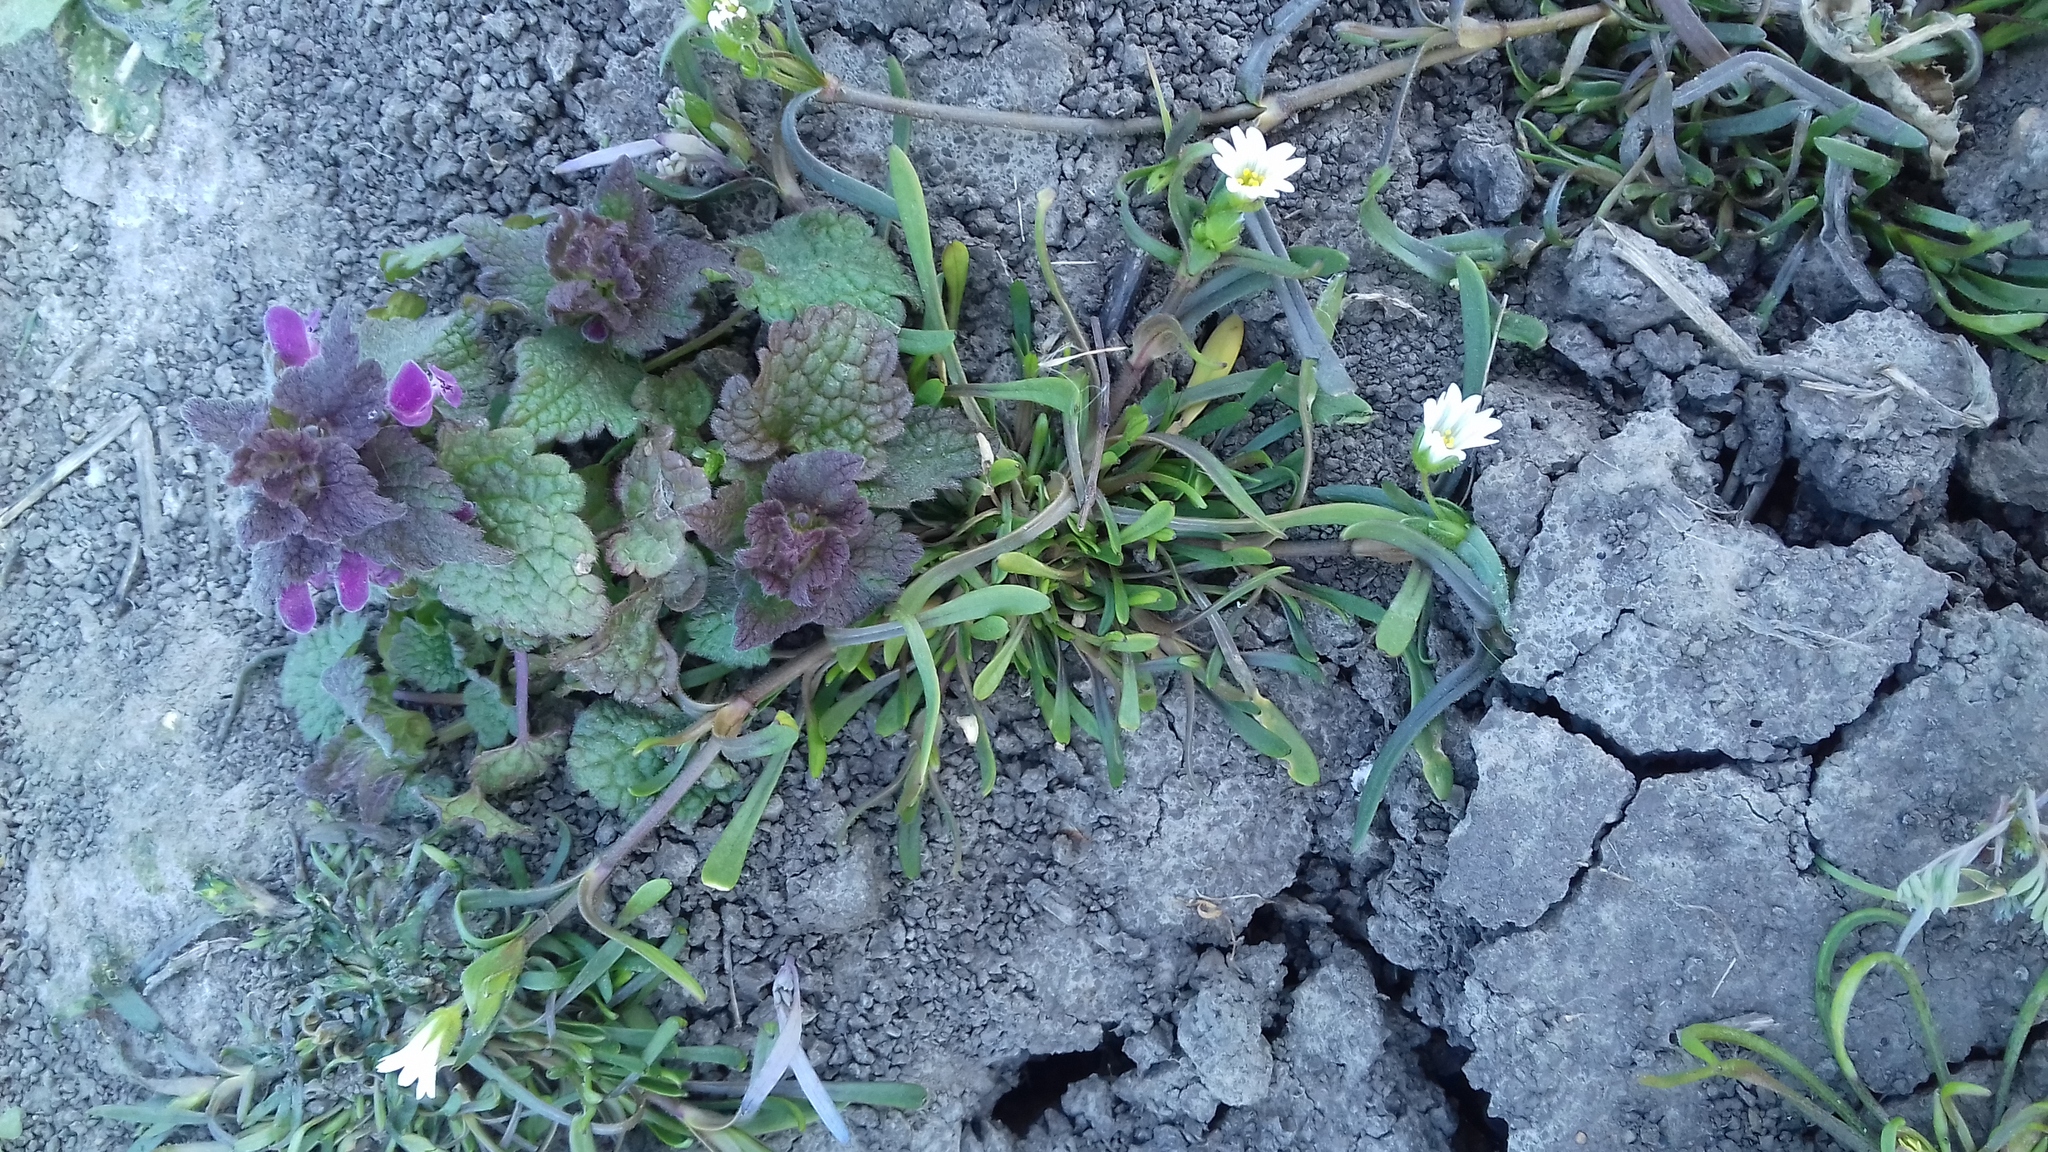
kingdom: Plantae
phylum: Tracheophyta
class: Magnoliopsida
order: Lamiales
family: Lamiaceae
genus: Lamium
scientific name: Lamium purpureum
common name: Red dead-nettle
